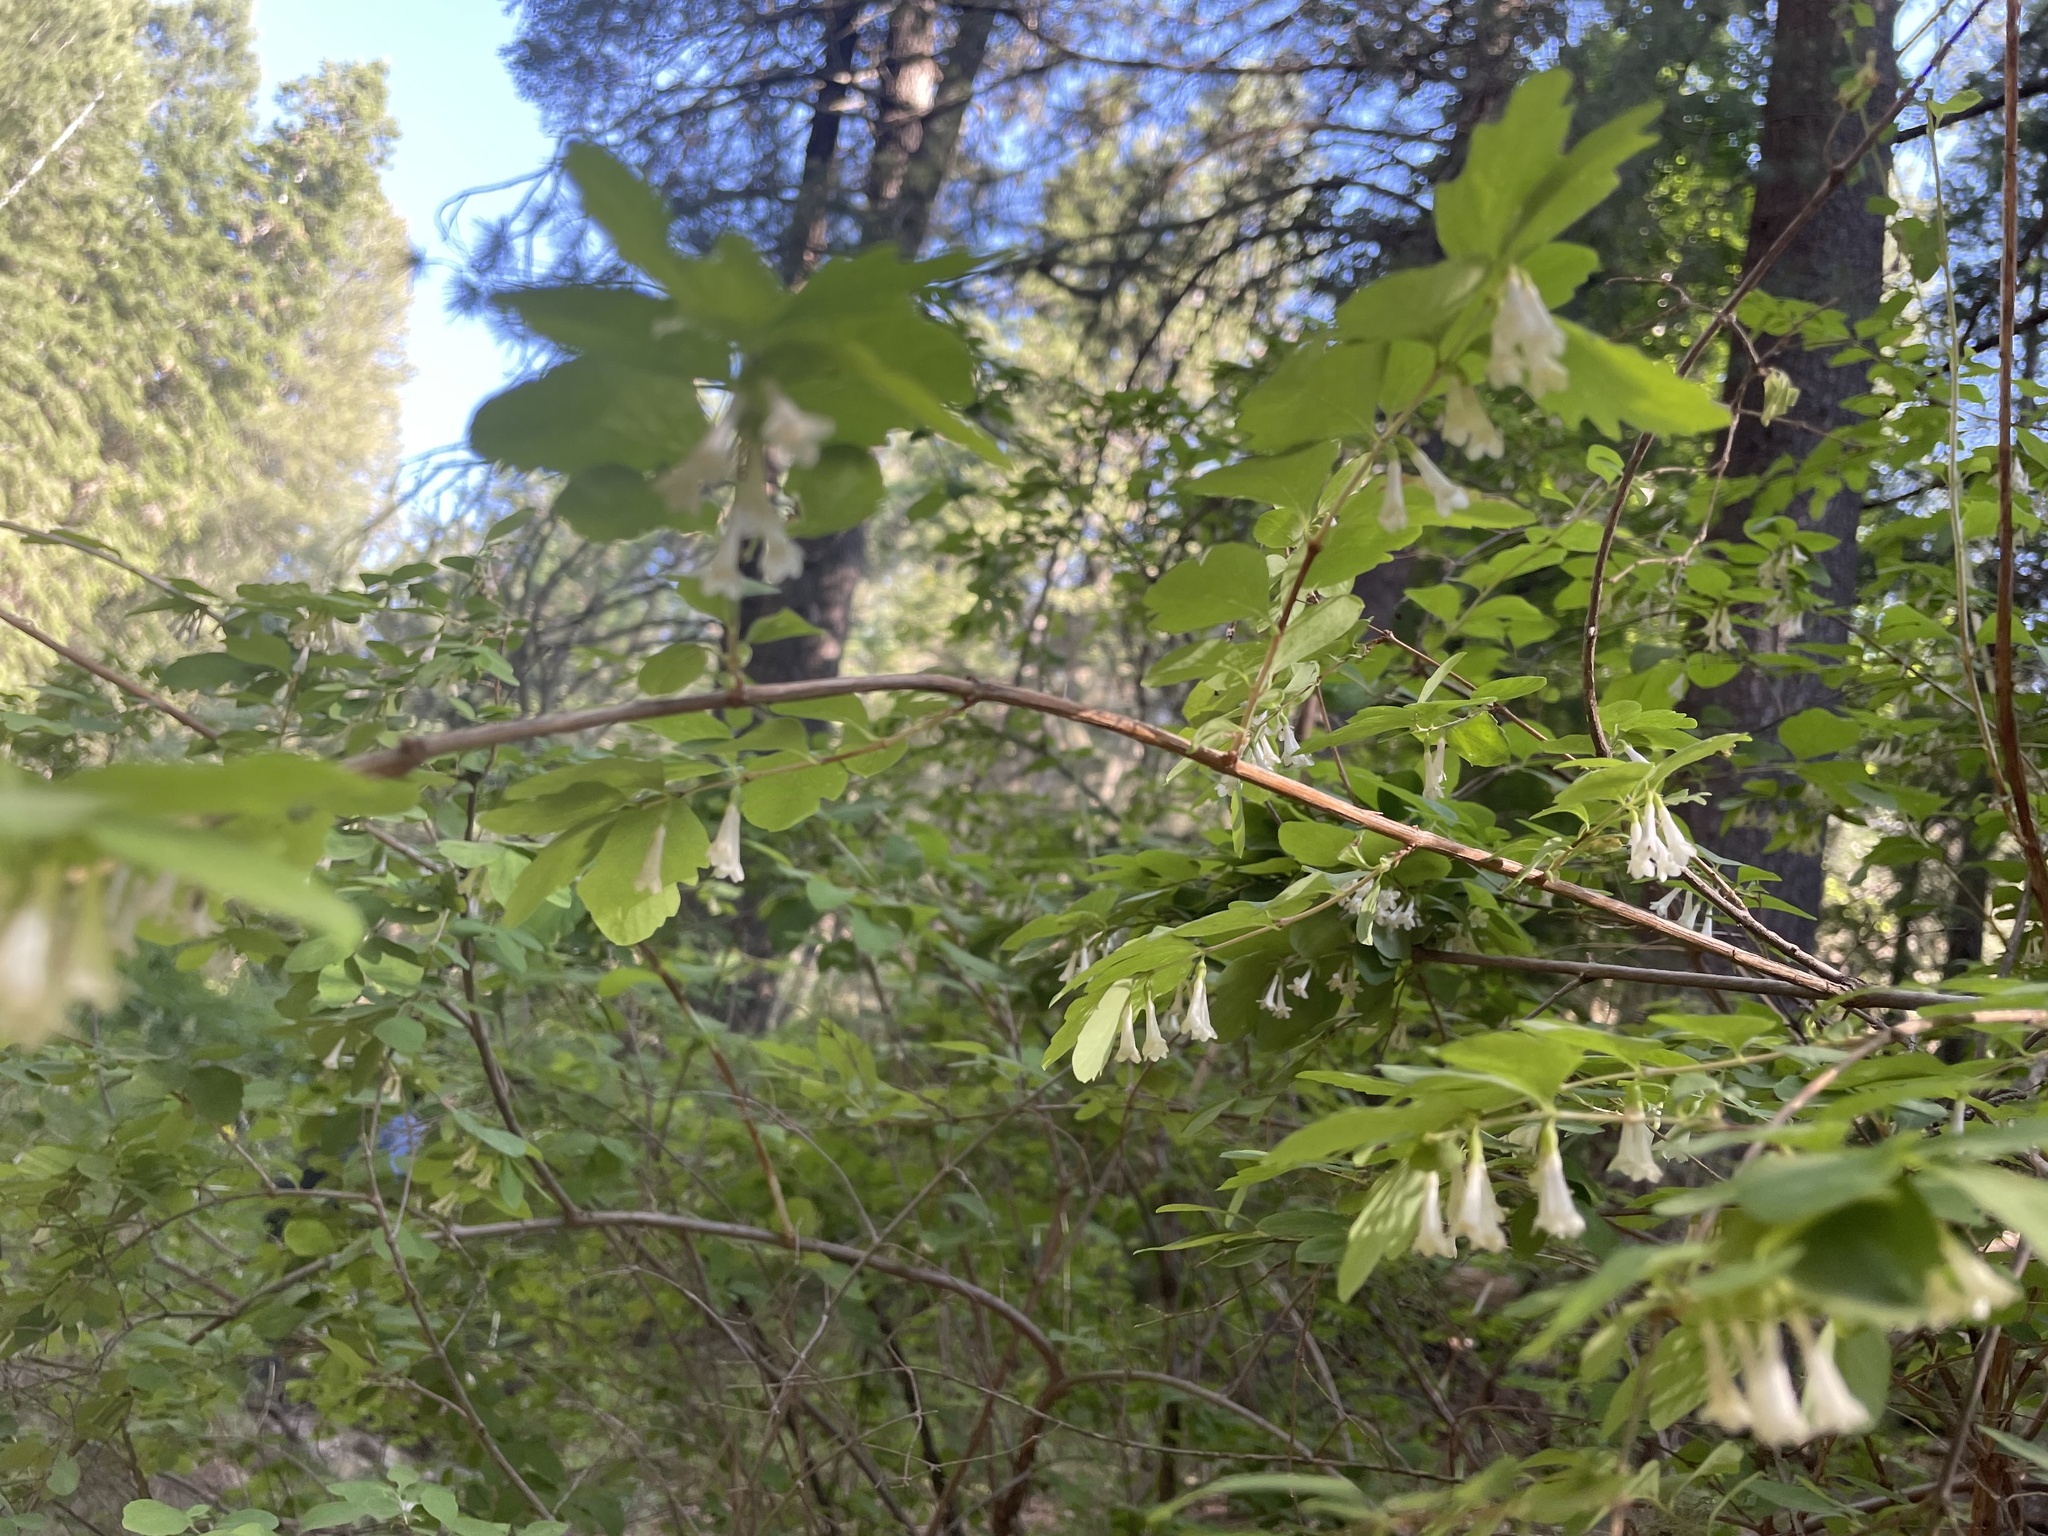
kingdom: Plantae
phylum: Tracheophyta
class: Magnoliopsida
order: Dipsacales
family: Caprifoliaceae
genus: Symphoricarpos
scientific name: Symphoricarpos rotundifolius
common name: Round-leaved snowberry
